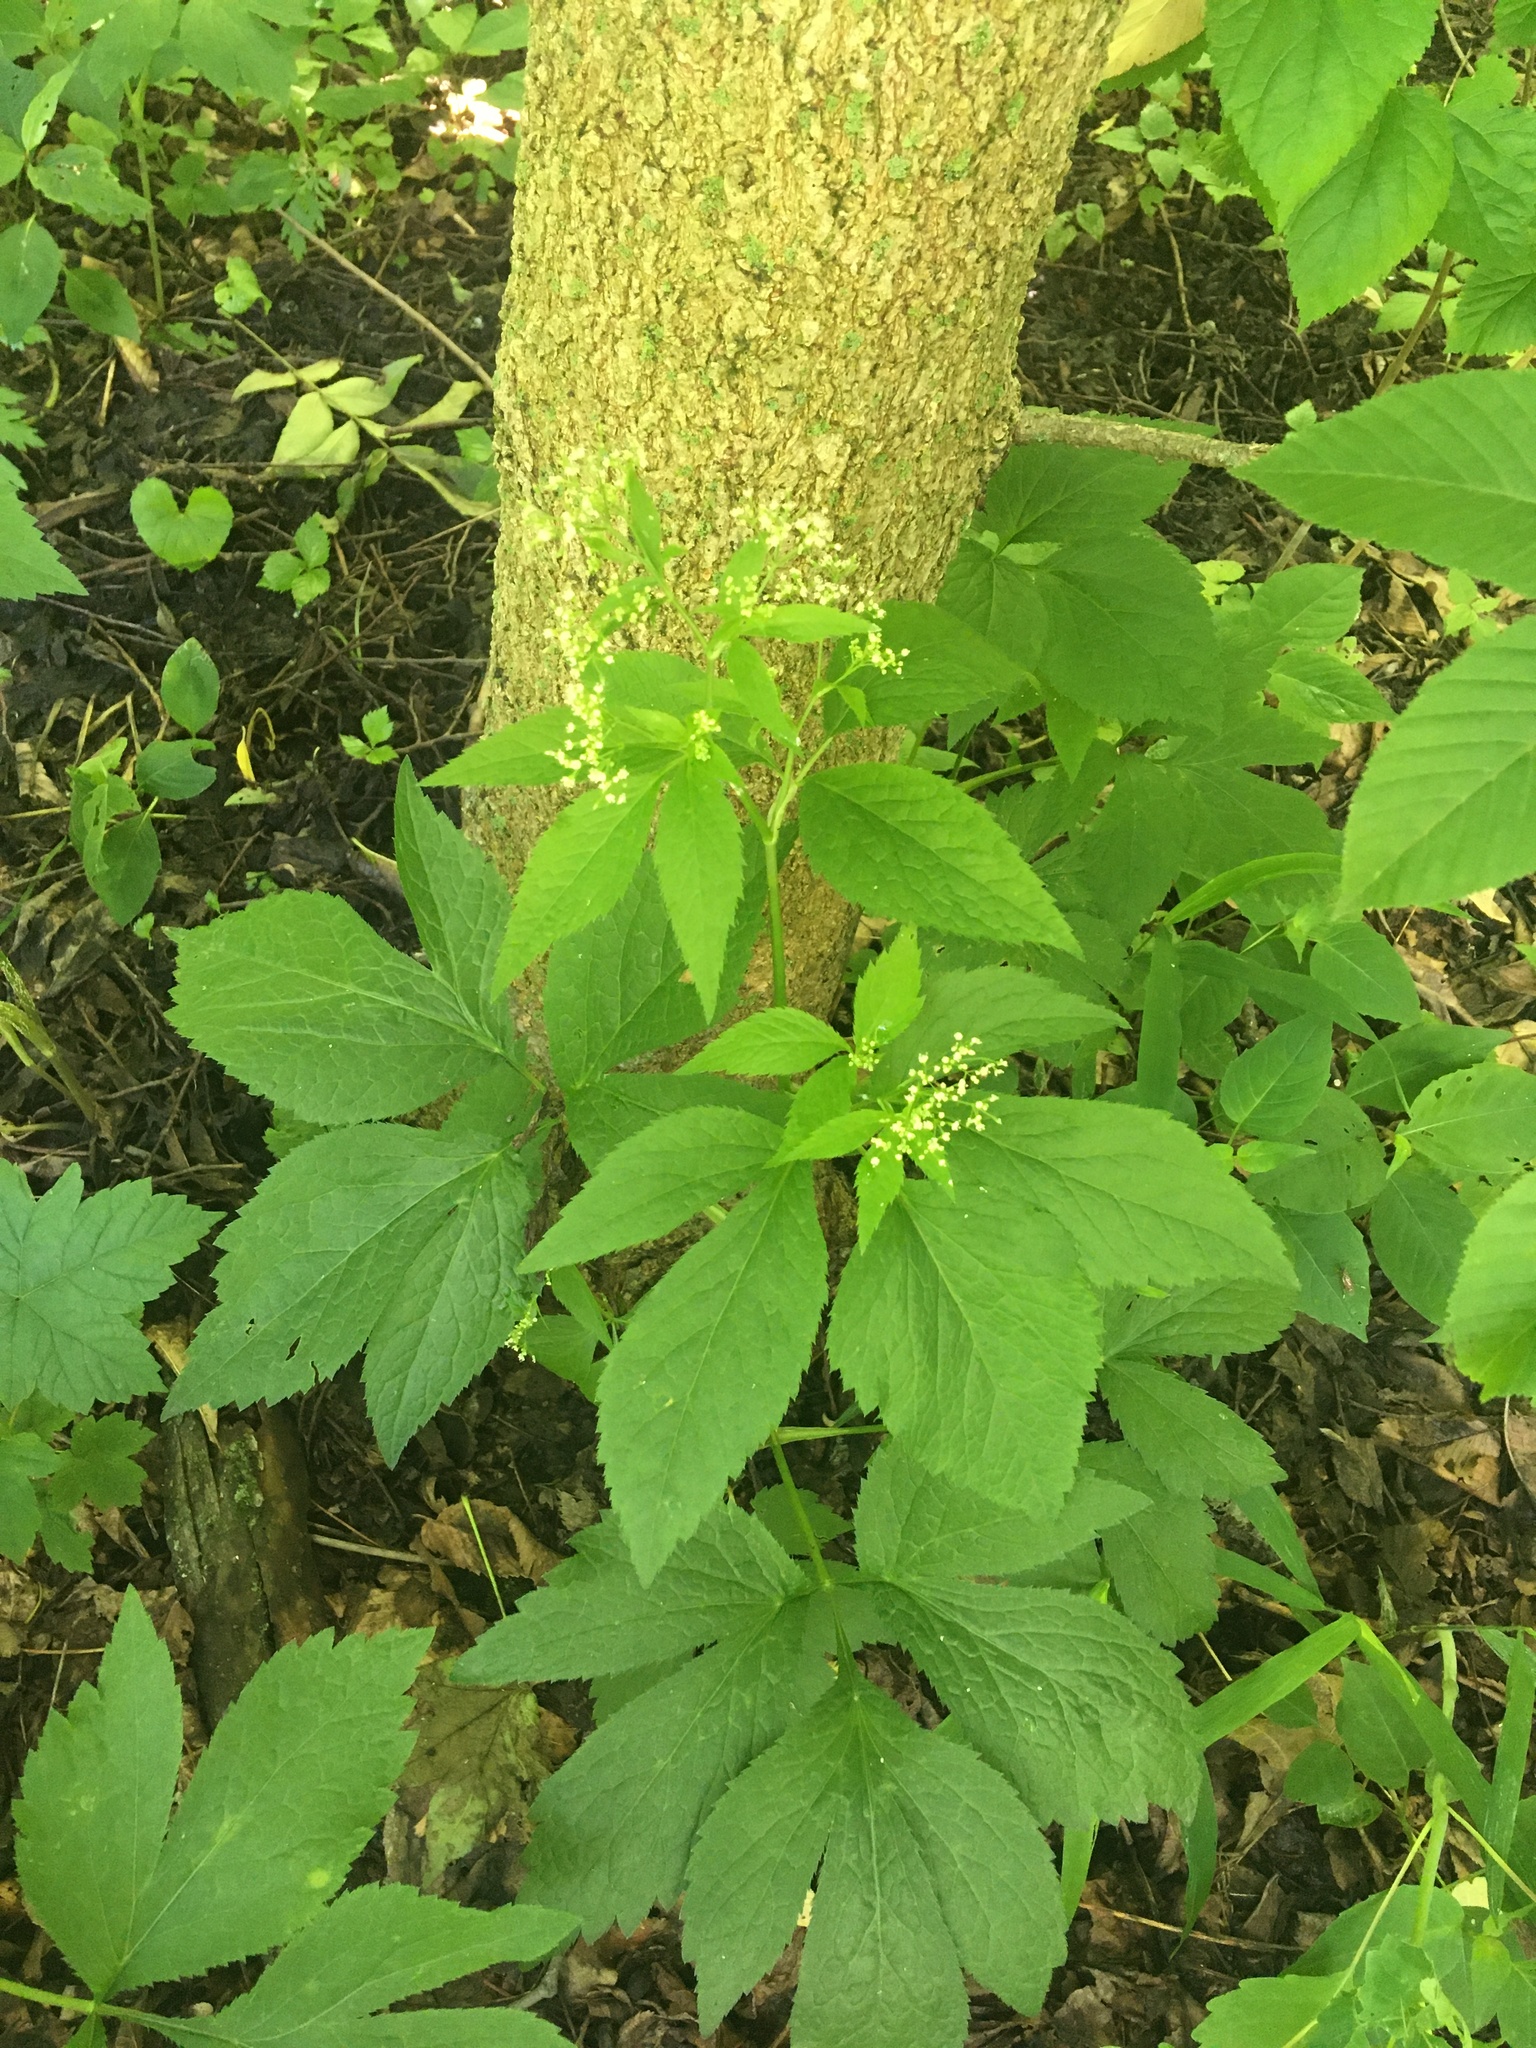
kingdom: Plantae
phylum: Tracheophyta
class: Magnoliopsida
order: Apiales
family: Apiaceae
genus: Cryptotaenia
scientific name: Cryptotaenia canadensis
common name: Honewort
